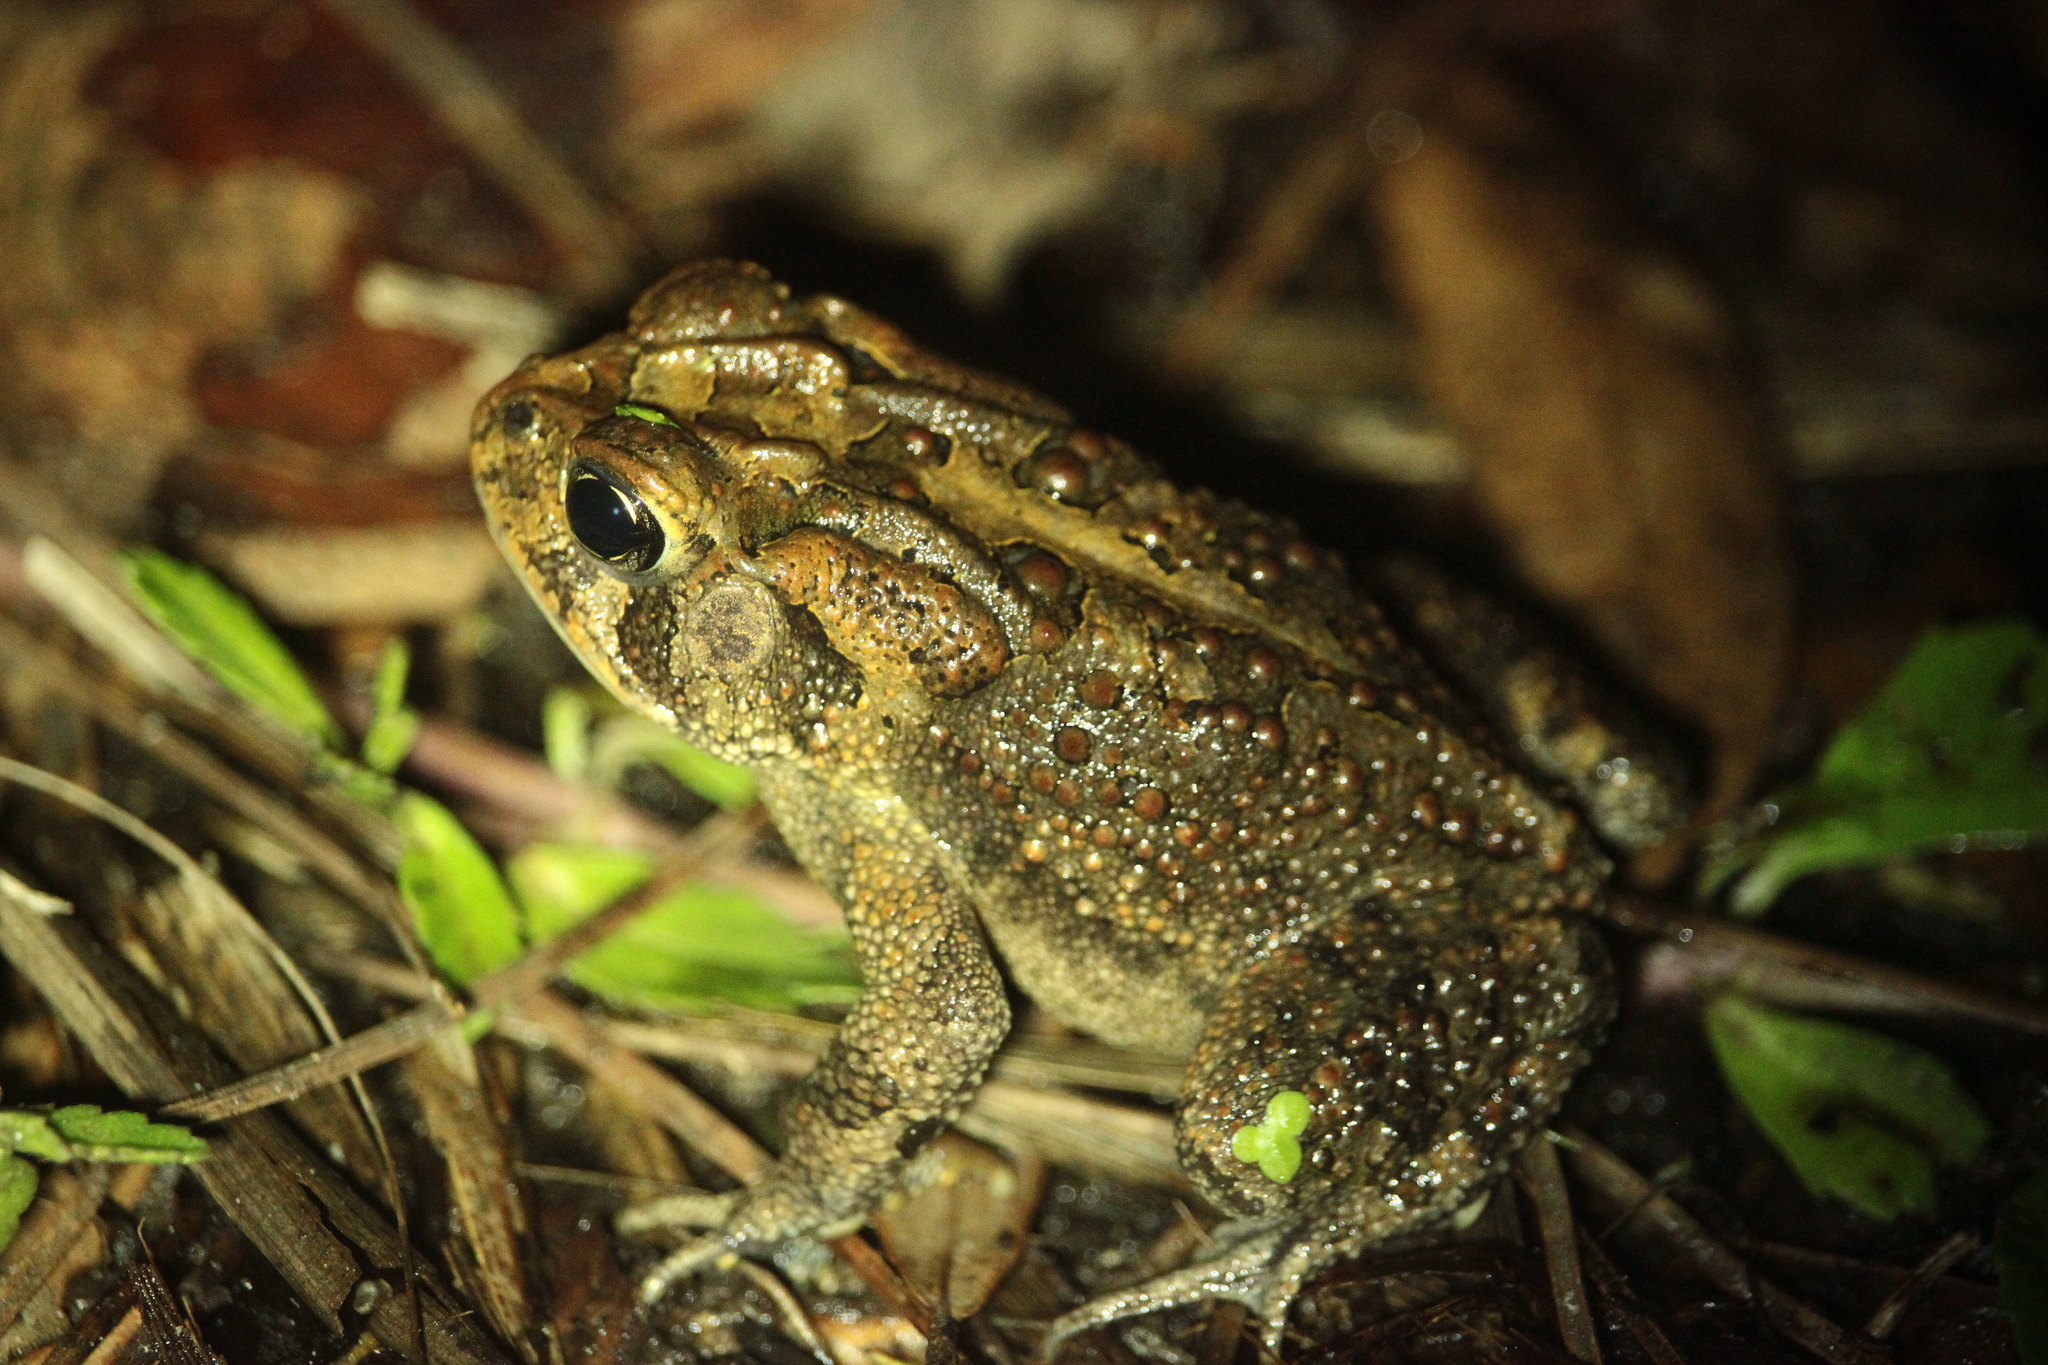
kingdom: Animalia
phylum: Chordata
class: Amphibia
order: Anura
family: Bufonidae
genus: Anaxyrus
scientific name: Anaxyrus terrestris
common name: Southern toad
